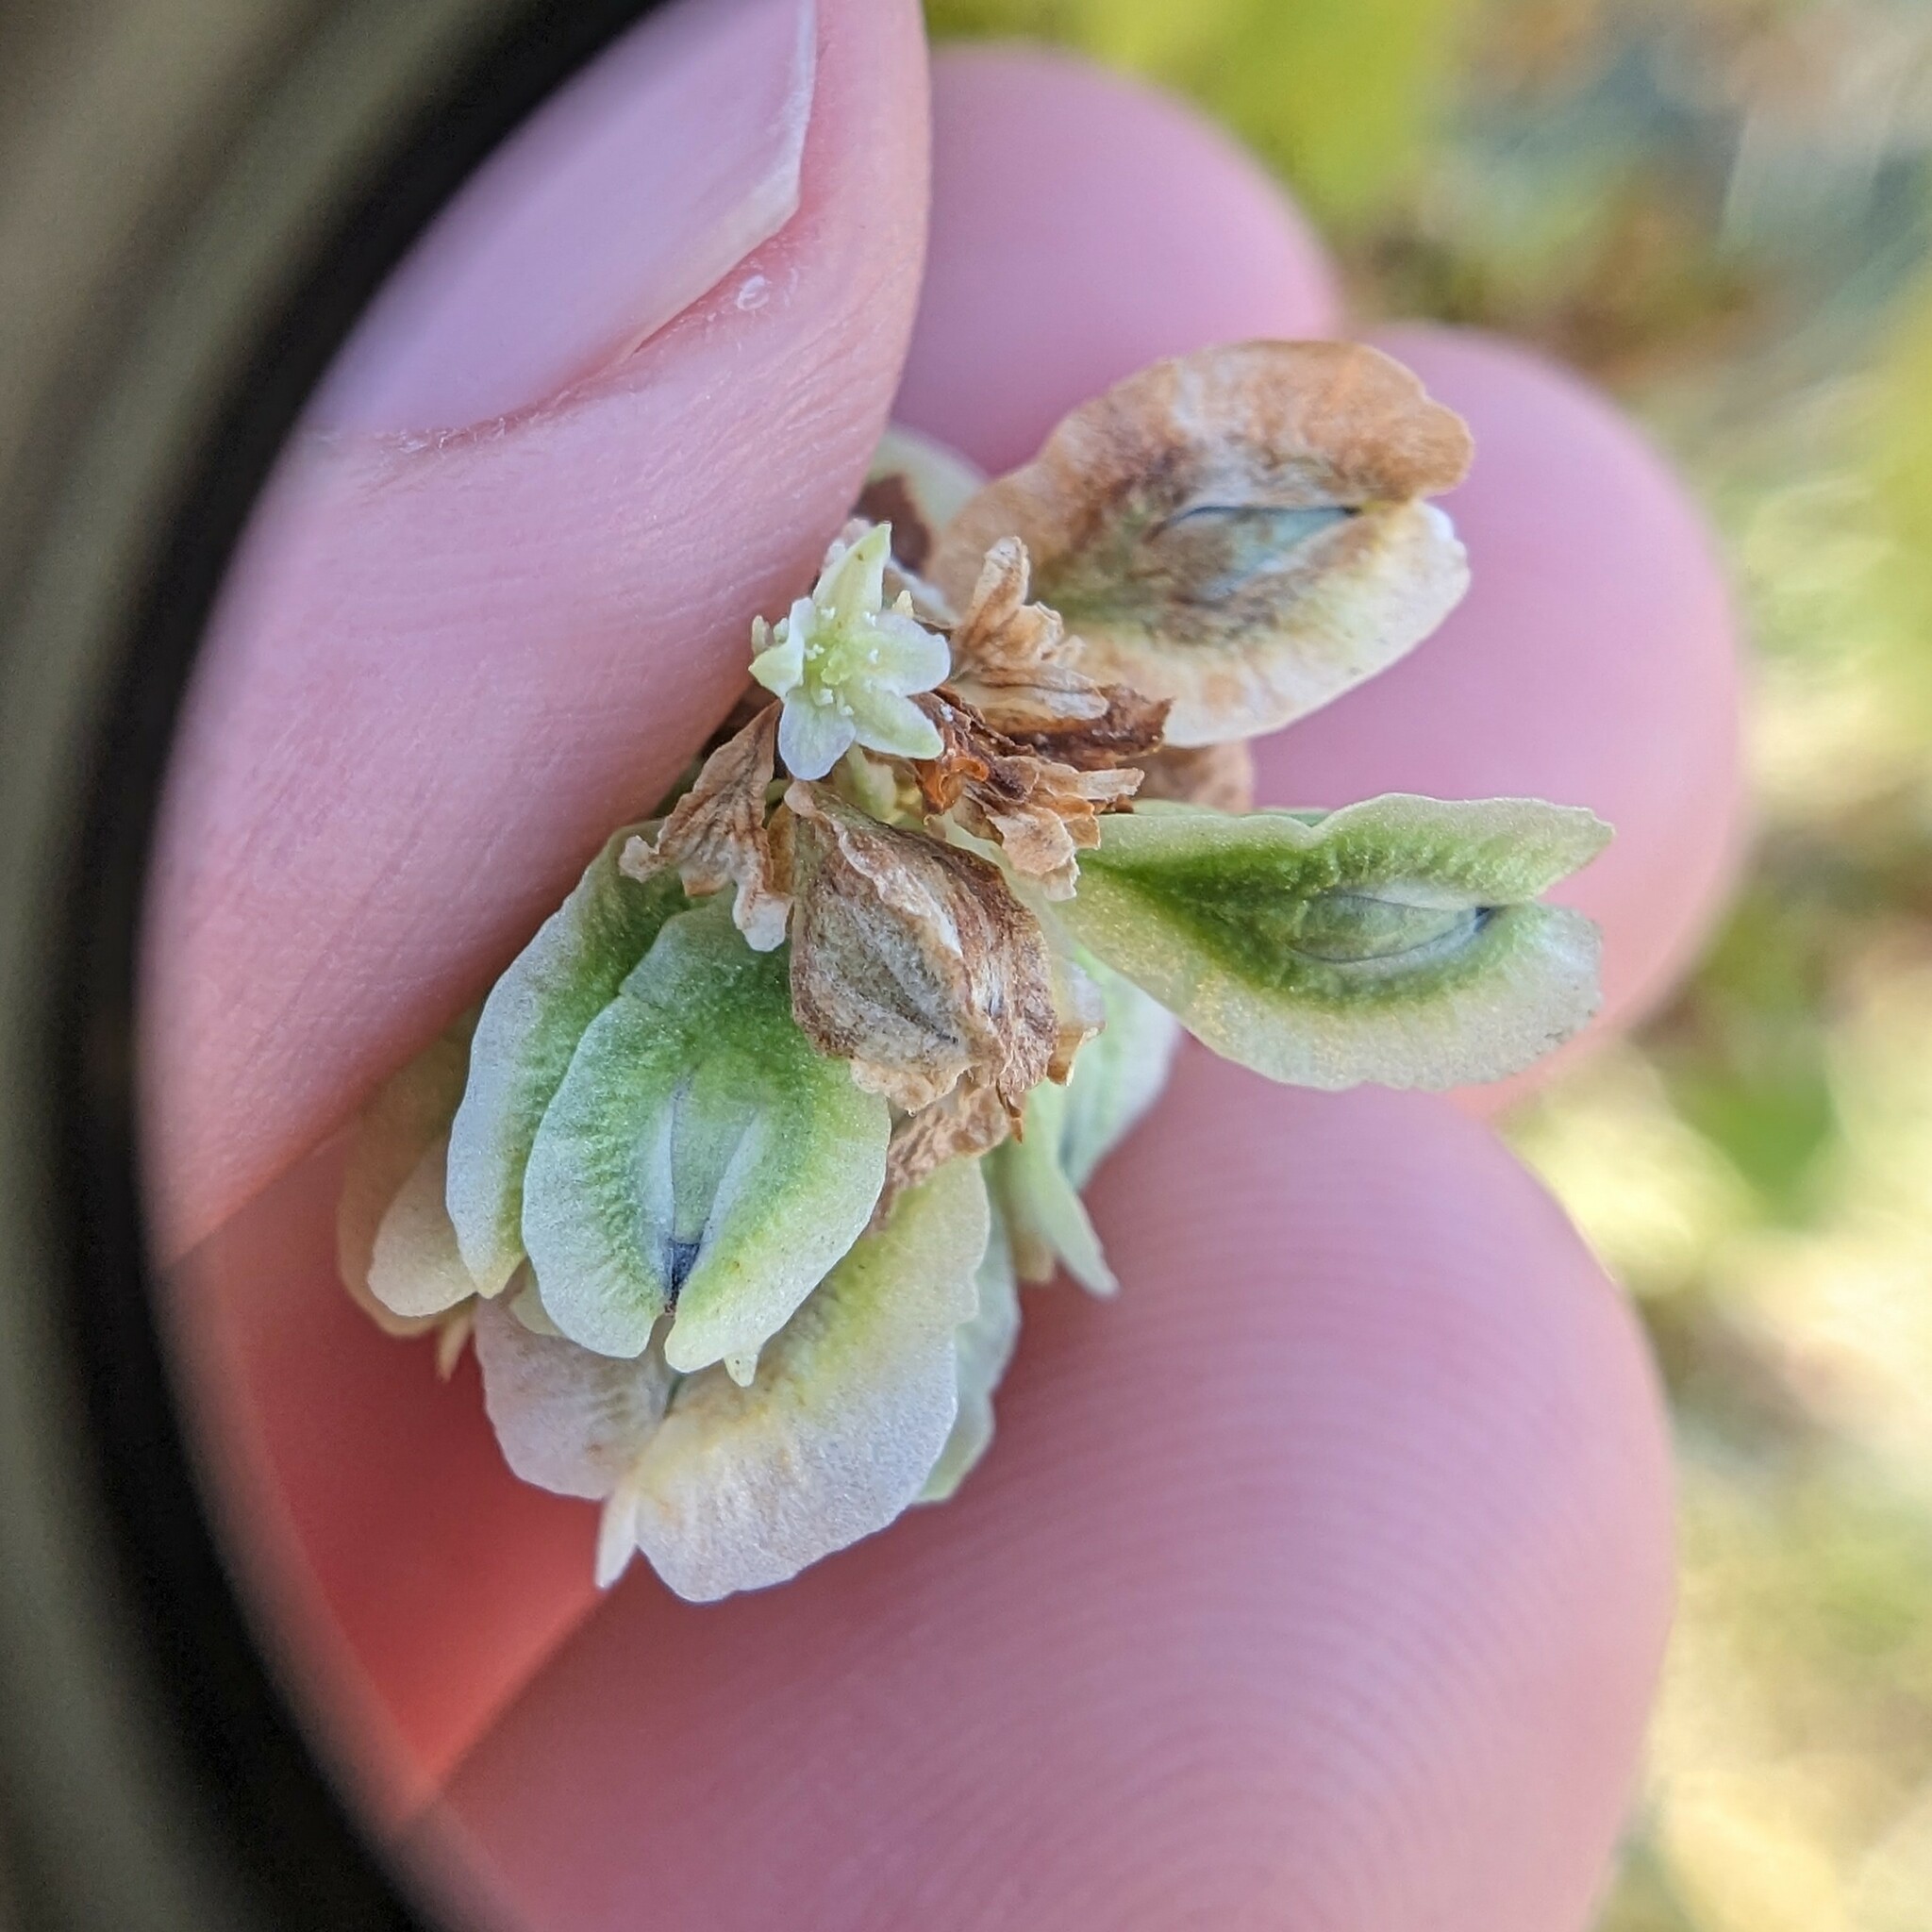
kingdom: Plantae
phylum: Tracheophyta
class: Magnoliopsida
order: Caryophyllales
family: Polygonaceae
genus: Fallopia
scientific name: Fallopia scandens
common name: Climbing false buckwheat
